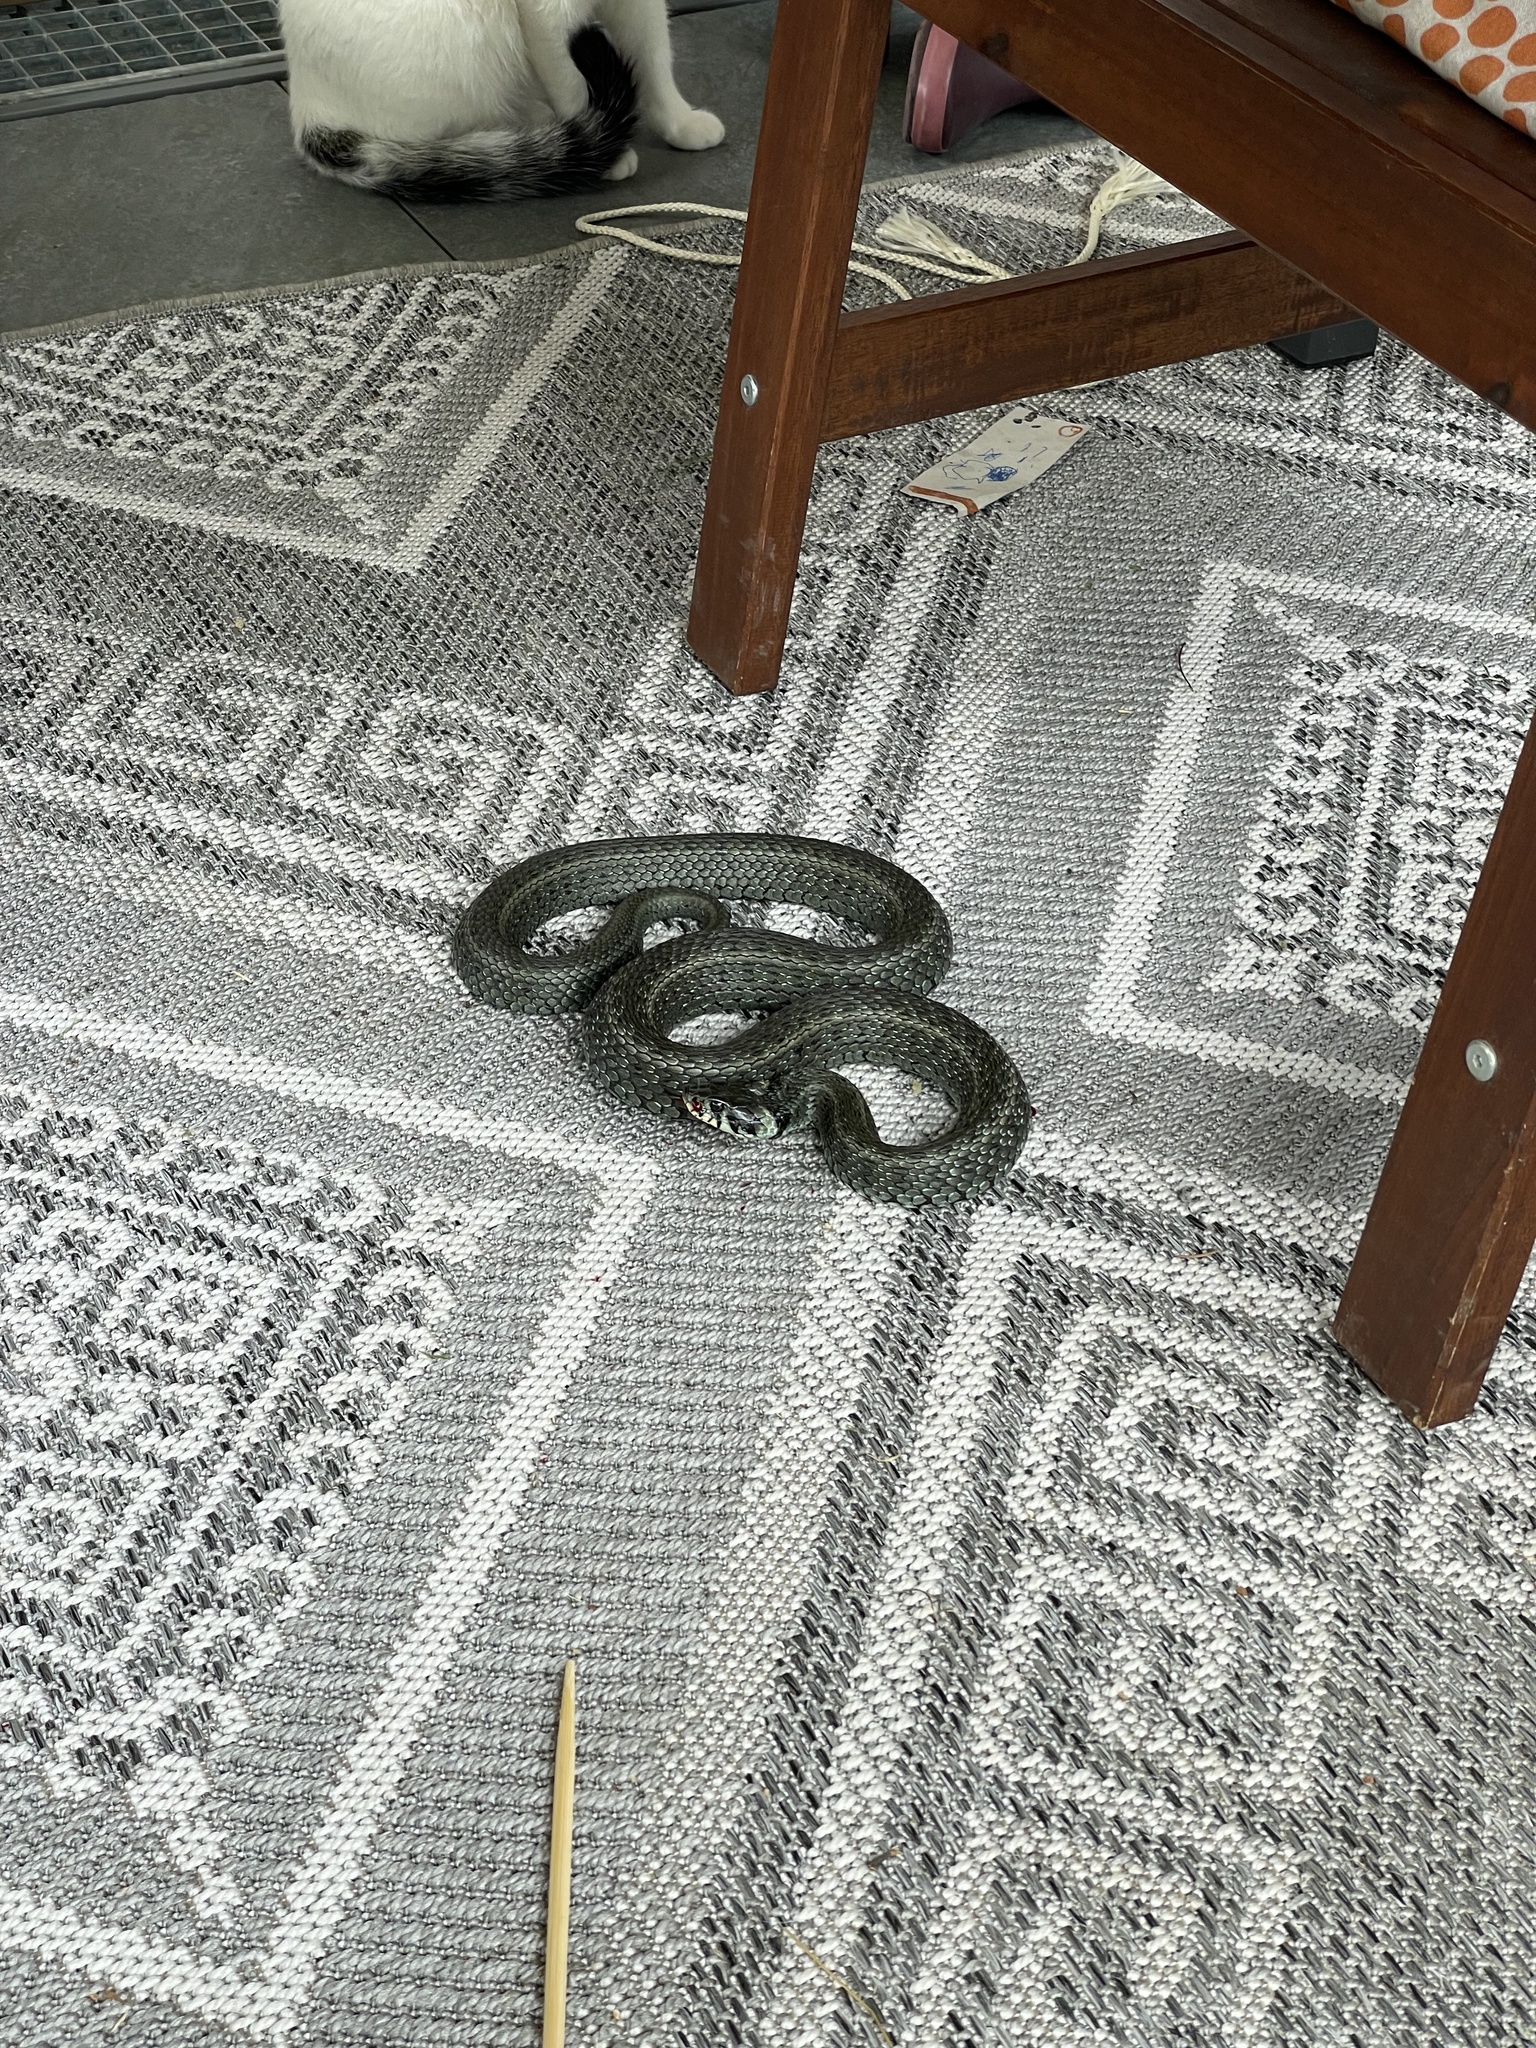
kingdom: Animalia
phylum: Chordata
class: Squamata
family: Colubridae
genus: Natrix
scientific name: Natrix natrix
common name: Grass snake
